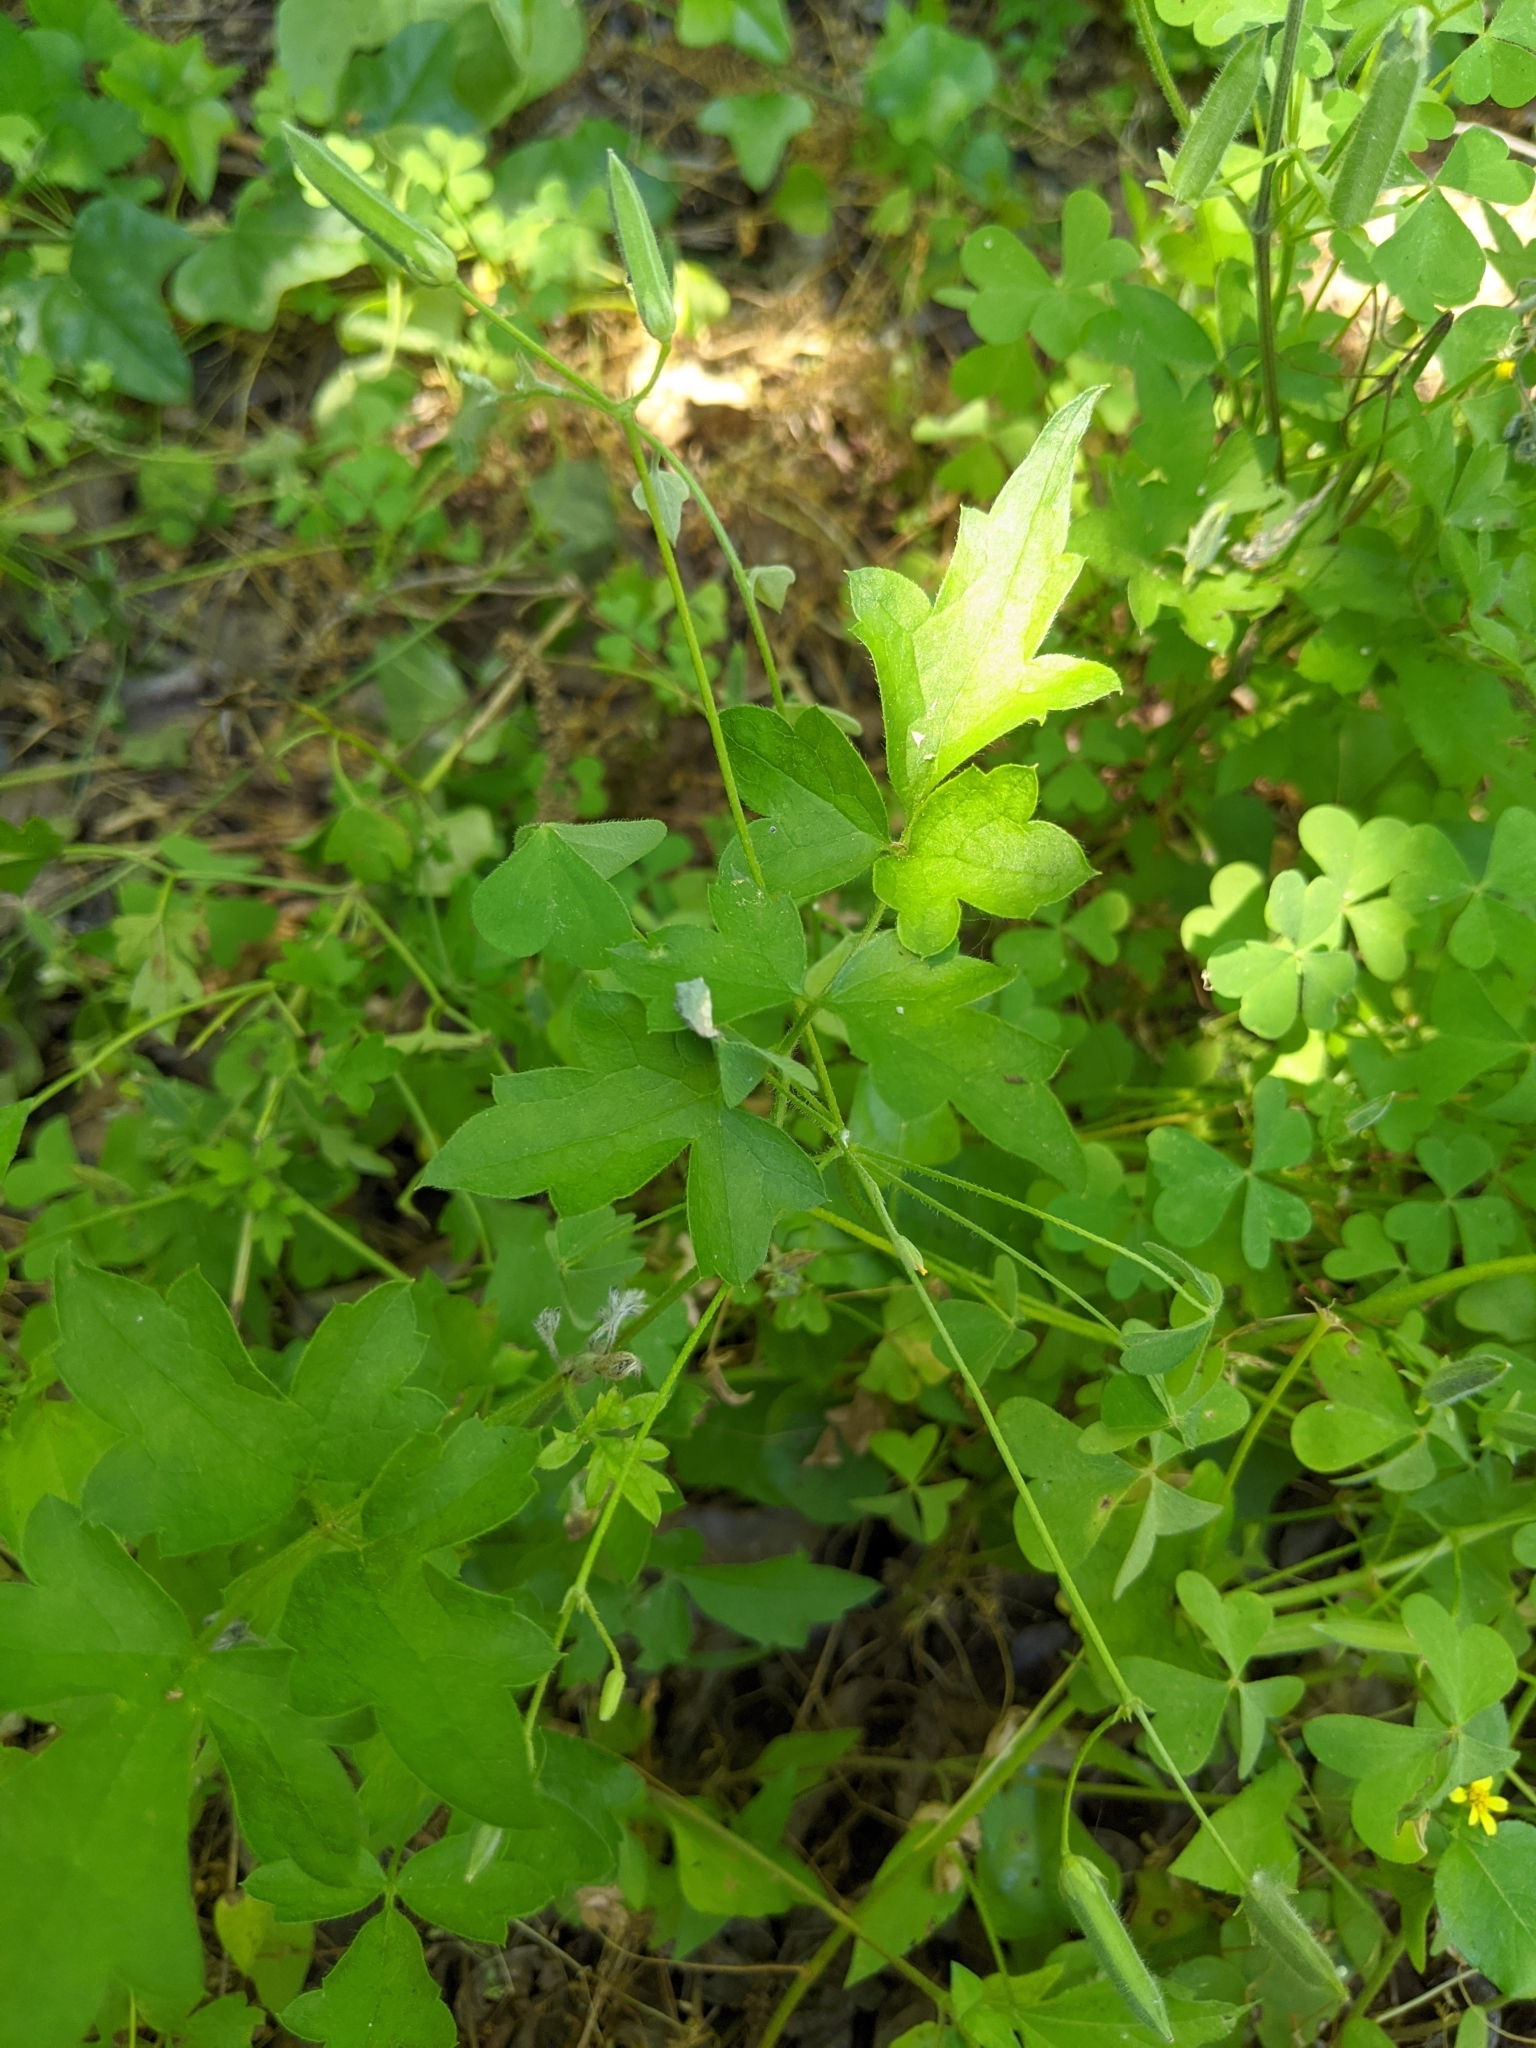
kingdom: Plantae
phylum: Tracheophyta
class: Magnoliopsida
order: Ranunculales
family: Ranunculaceae
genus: Clematis
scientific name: Clematis drummondii
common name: Texas virgin's bower
